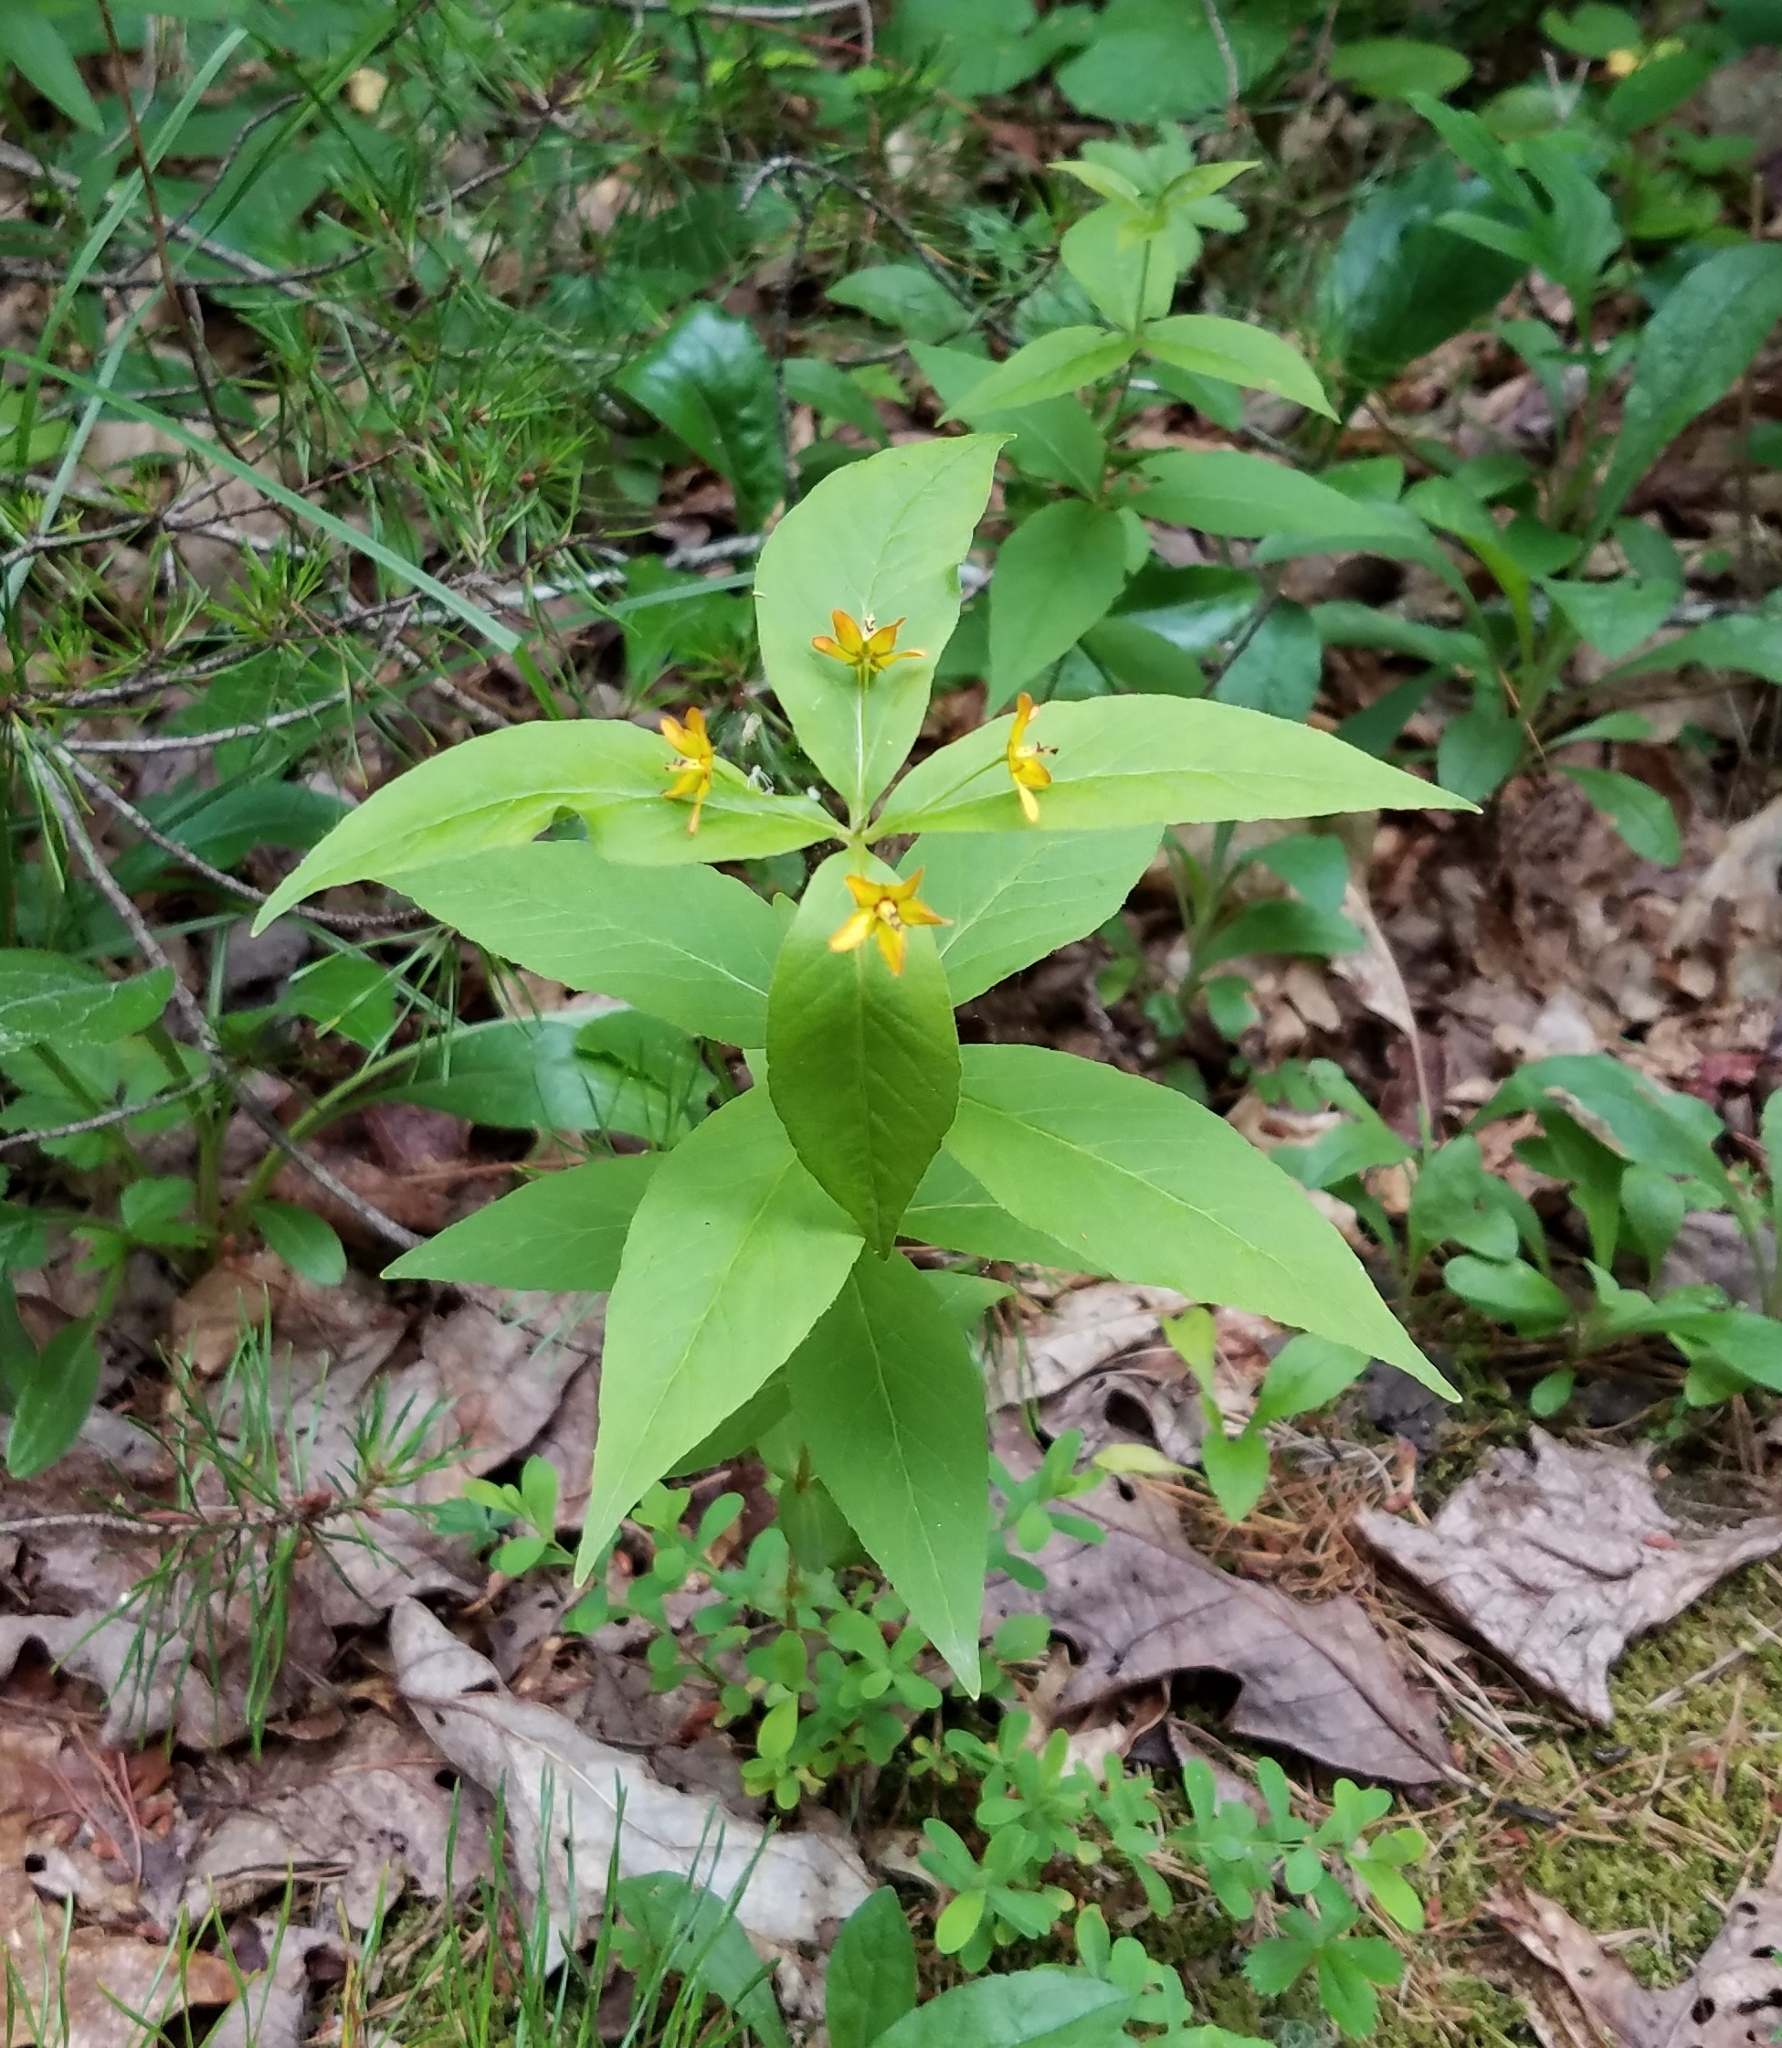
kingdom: Plantae
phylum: Tracheophyta
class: Magnoliopsida
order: Ericales
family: Primulaceae
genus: Lysimachia
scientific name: Lysimachia quadrifolia
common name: Whorled loosestrife
